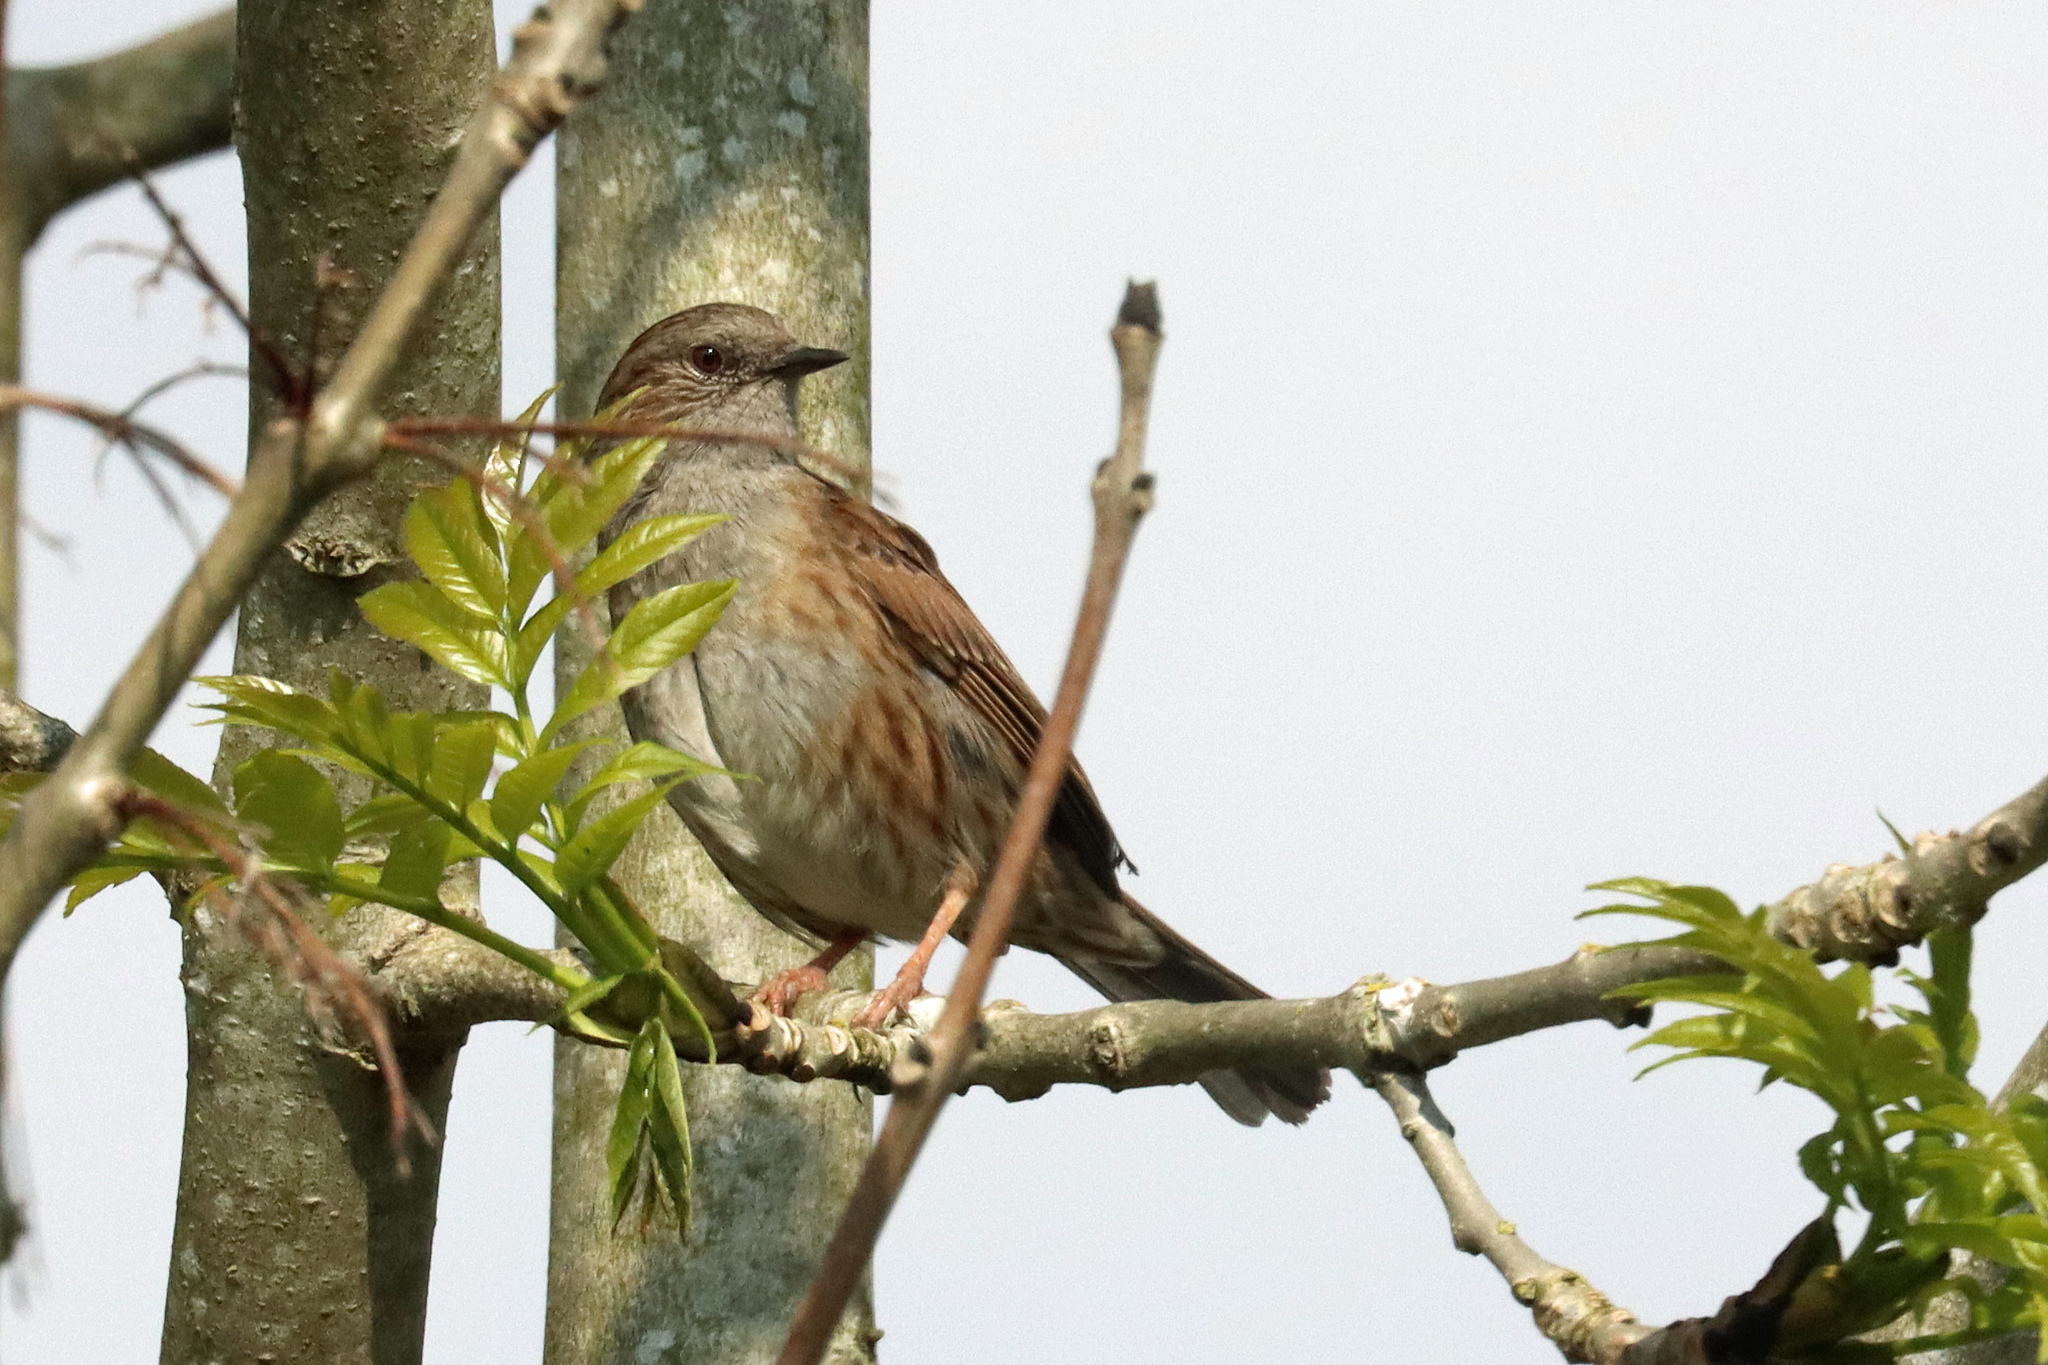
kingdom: Animalia
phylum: Chordata
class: Aves
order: Passeriformes
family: Prunellidae
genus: Prunella
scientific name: Prunella modularis
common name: Dunnock
